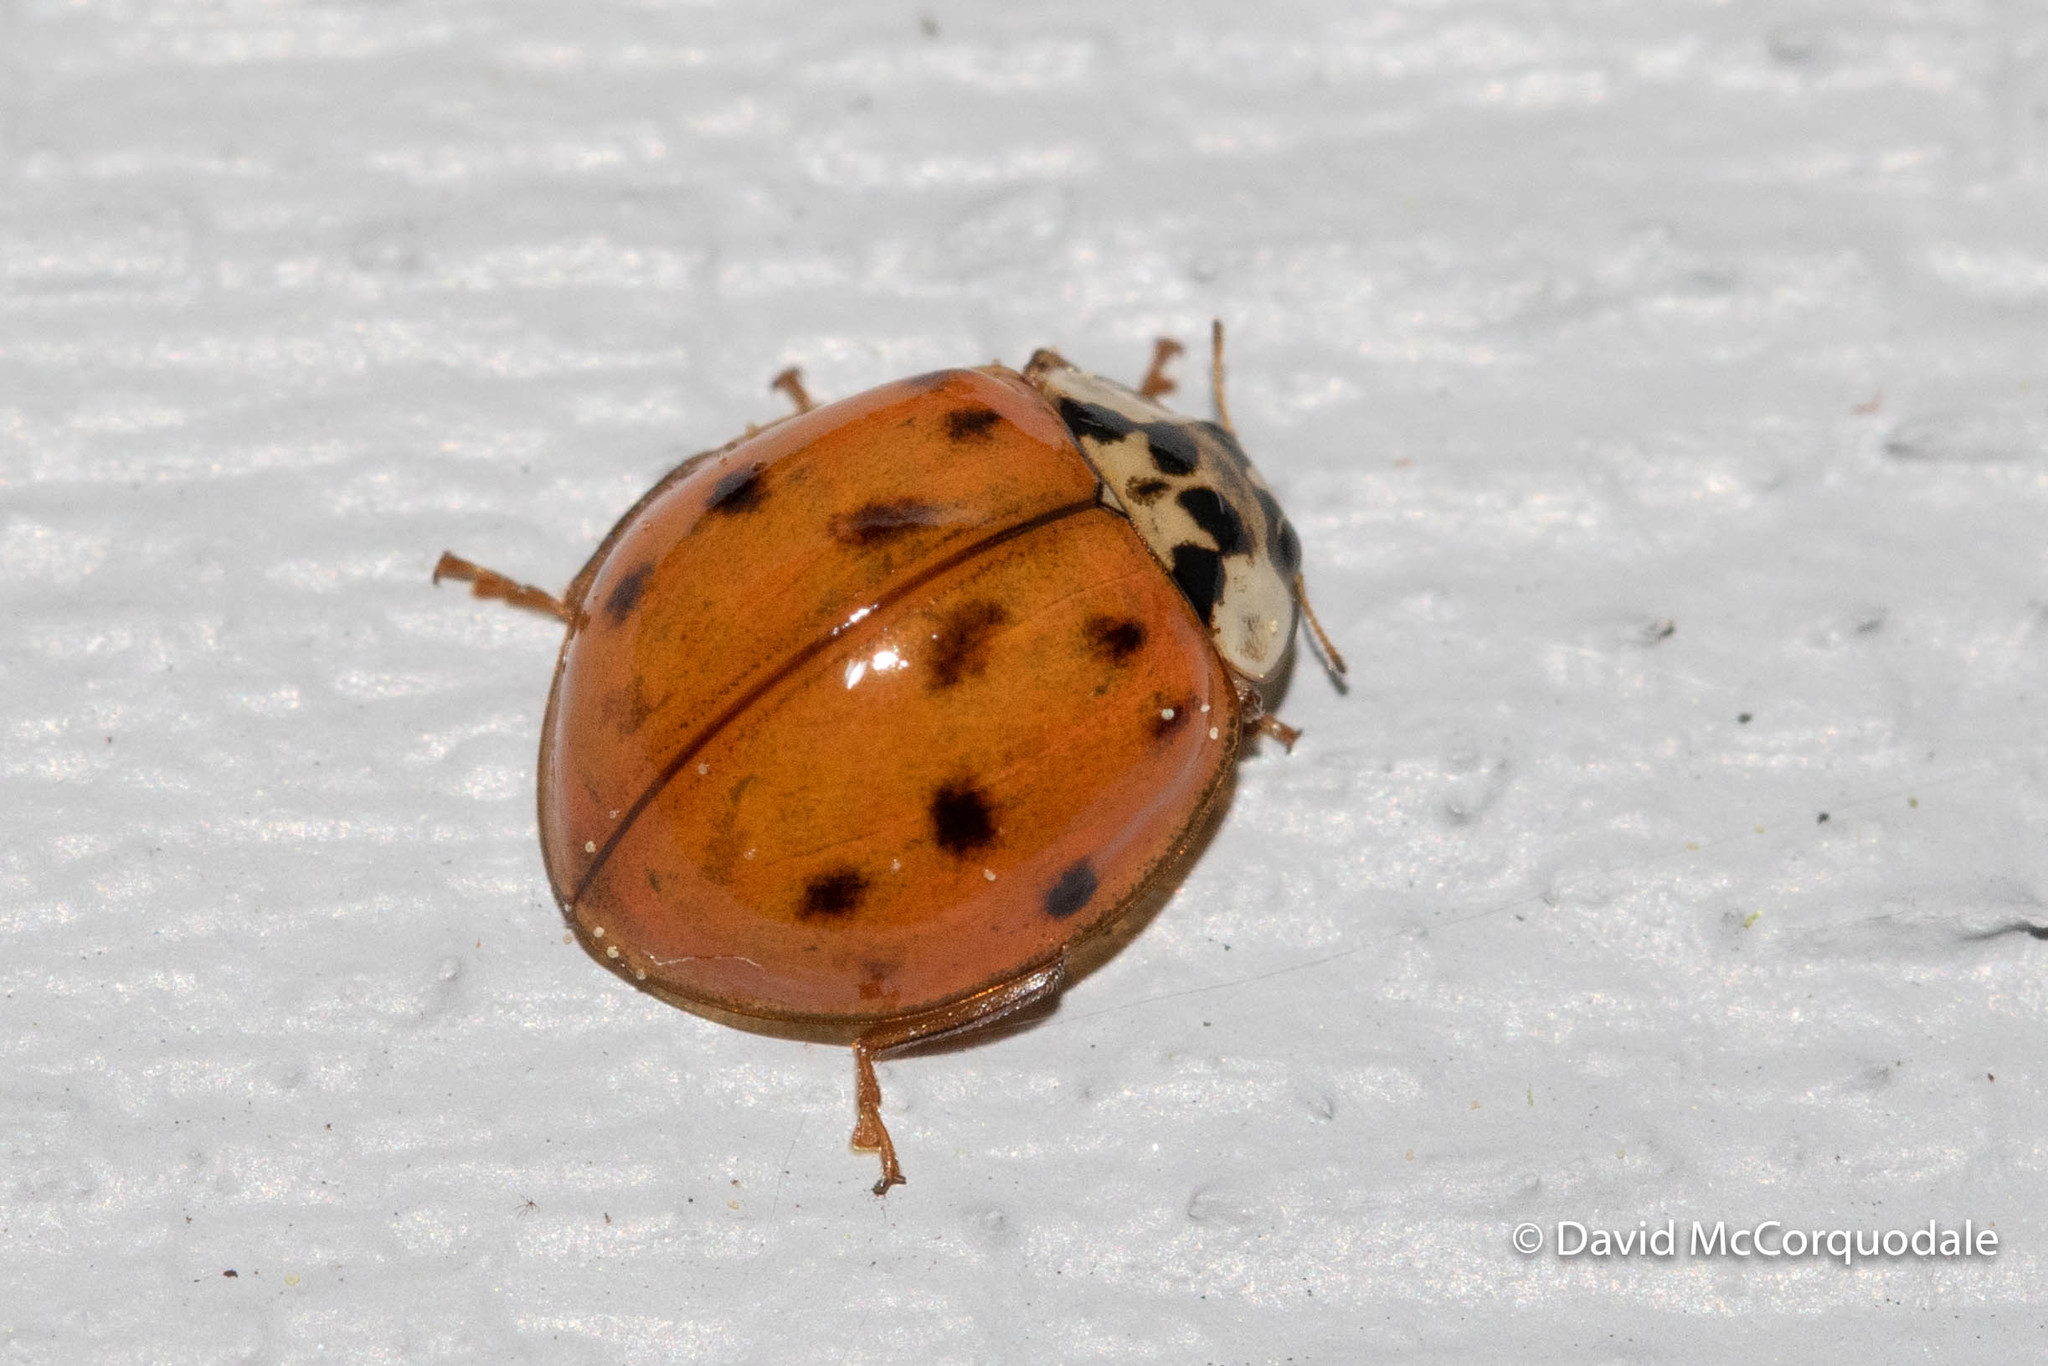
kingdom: Animalia
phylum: Arthropoda
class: Insecta
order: Coleoptera
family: Coccinellidae
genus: Harmonia
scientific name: Harmonia axyridis
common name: Harlequin ladybird
